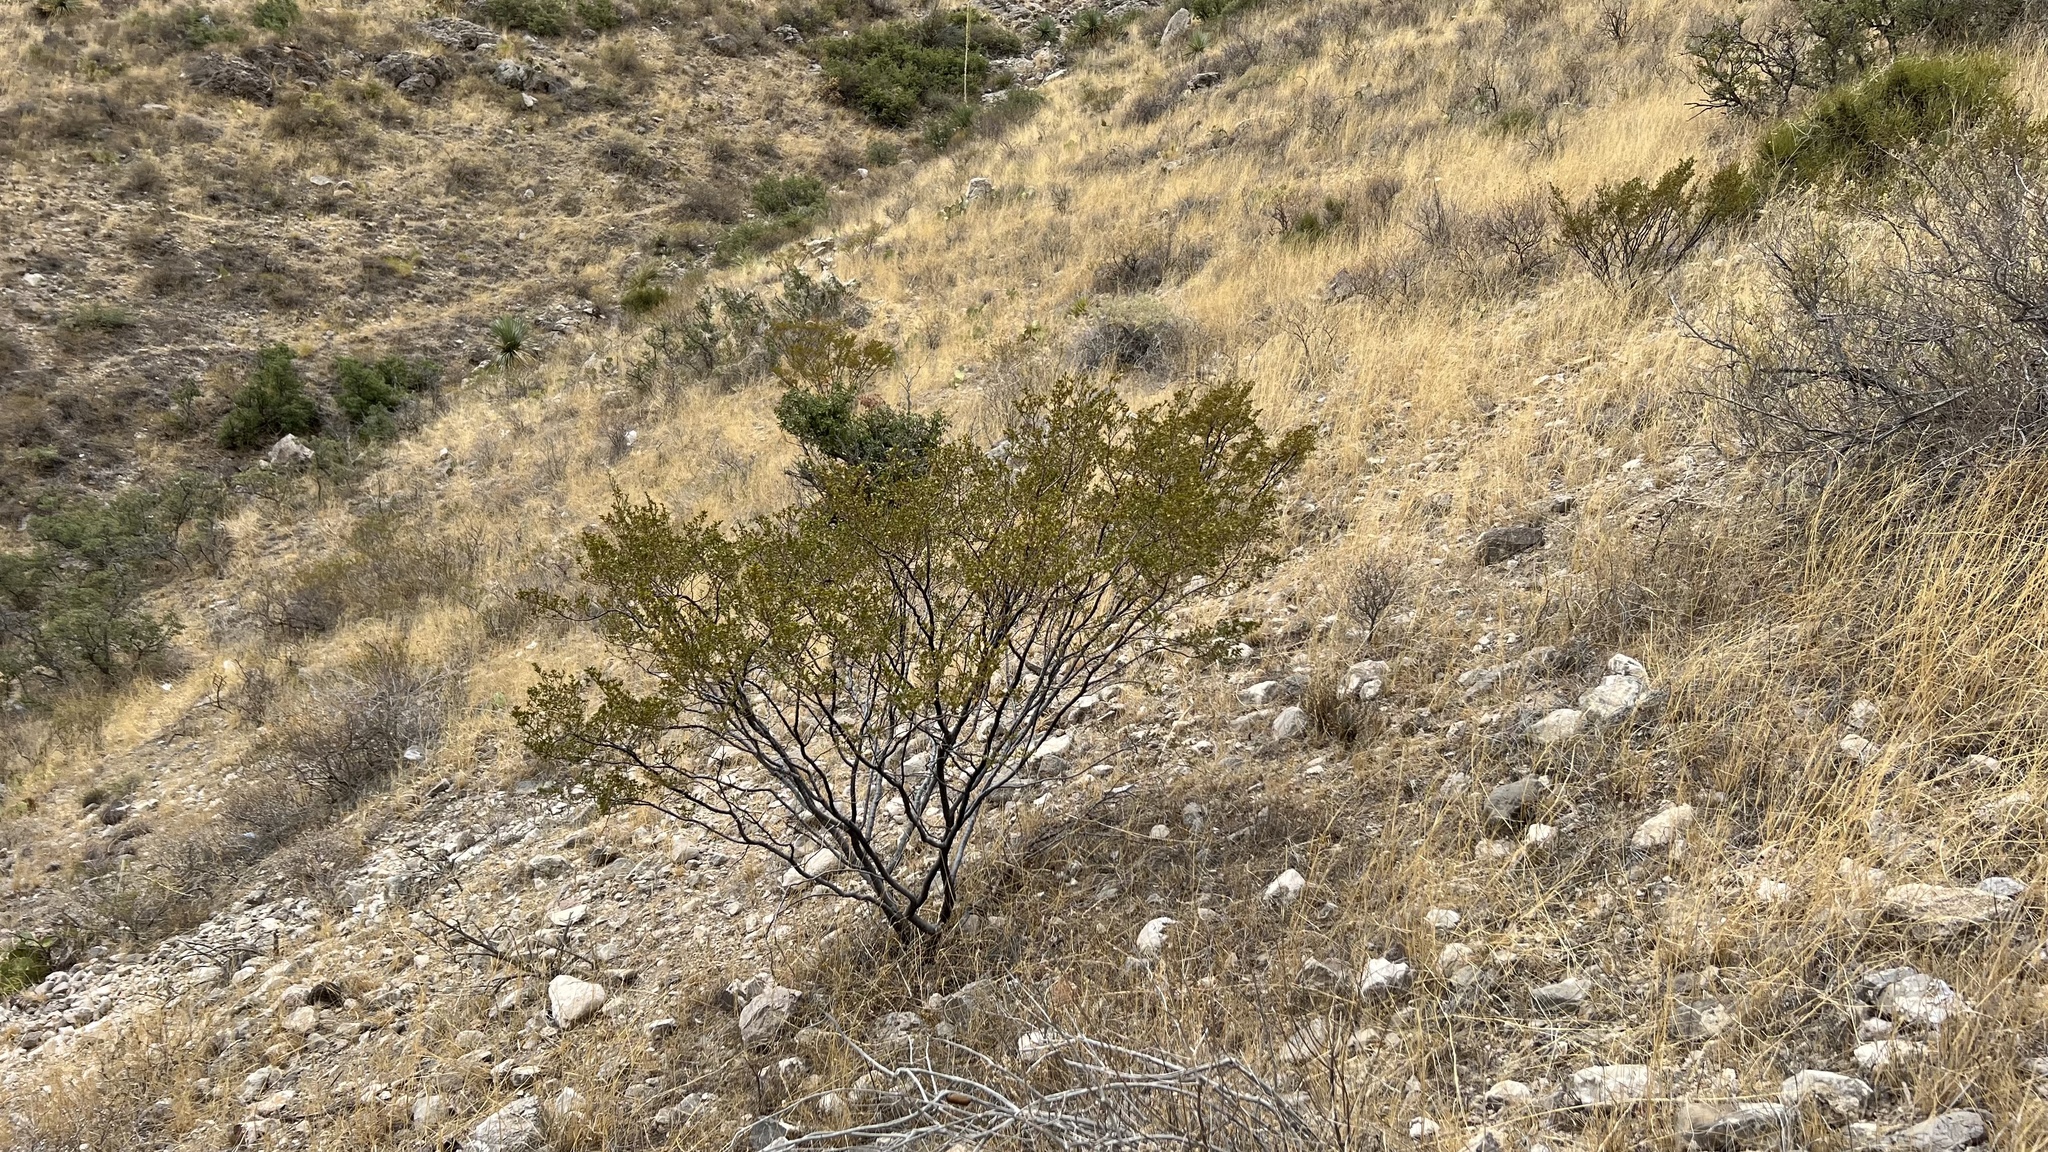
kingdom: Plantae
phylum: Tracheophyta
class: Magnoliopsida
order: Zygophyllales
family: Zygophyllaceae
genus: Larrea
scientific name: Larrea tridentata
